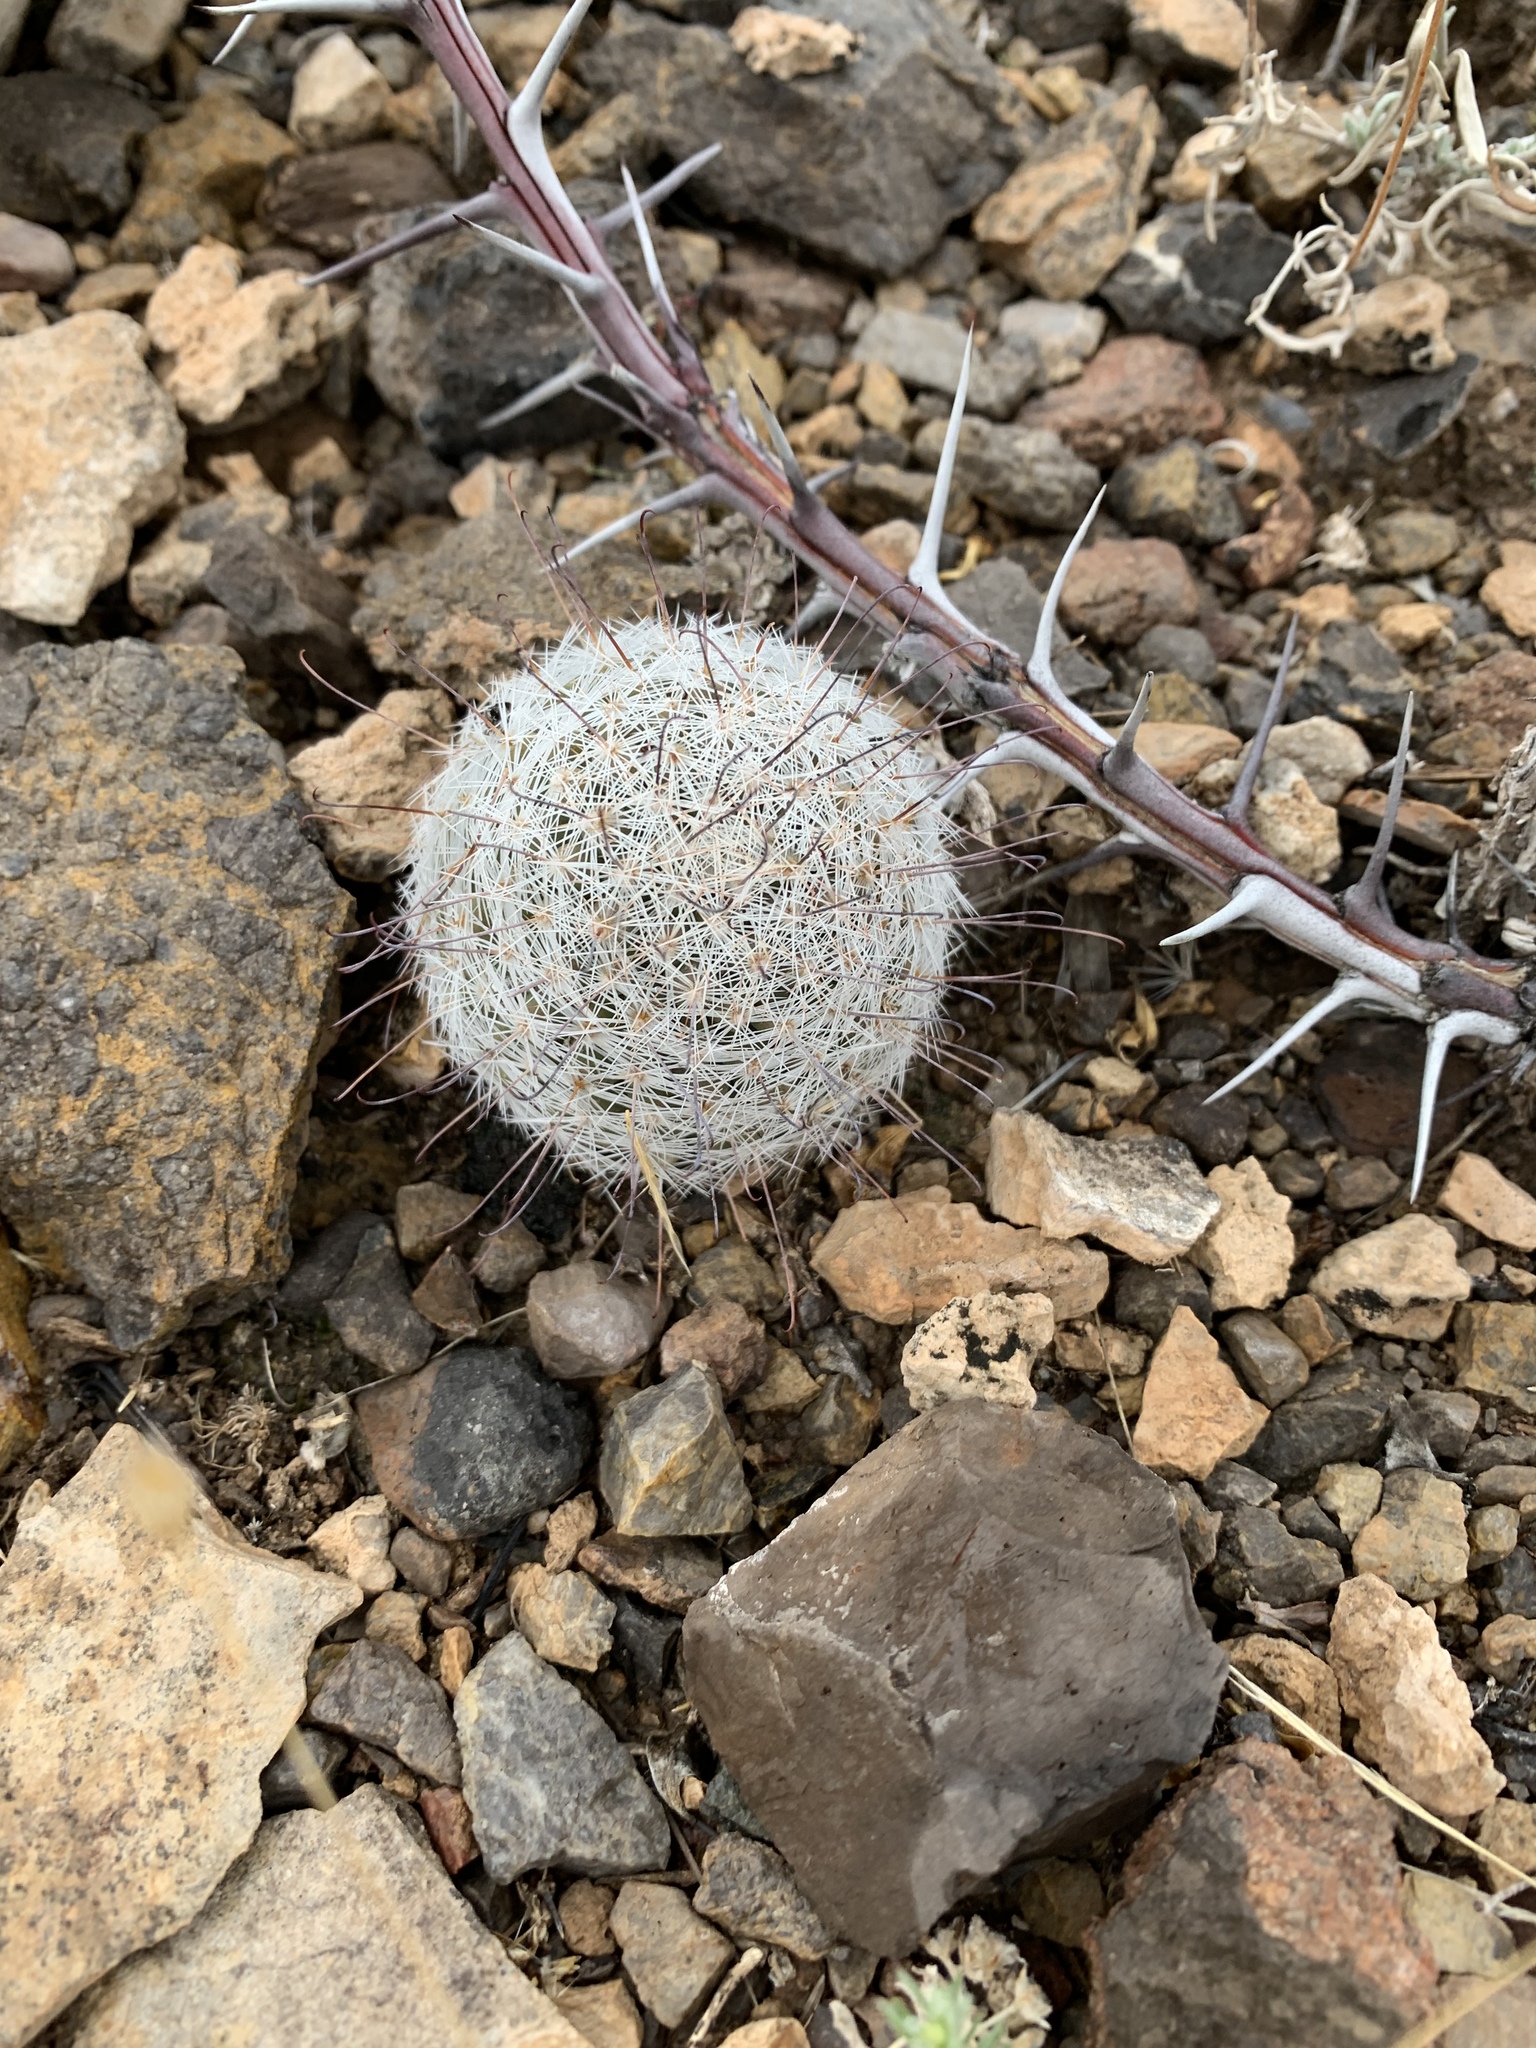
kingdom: Plantae
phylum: Tracheophyta
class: Magnoliopsida
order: Caryophyllales
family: Cactaceae
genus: Cochemiea
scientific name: Cochemiea grahamii
